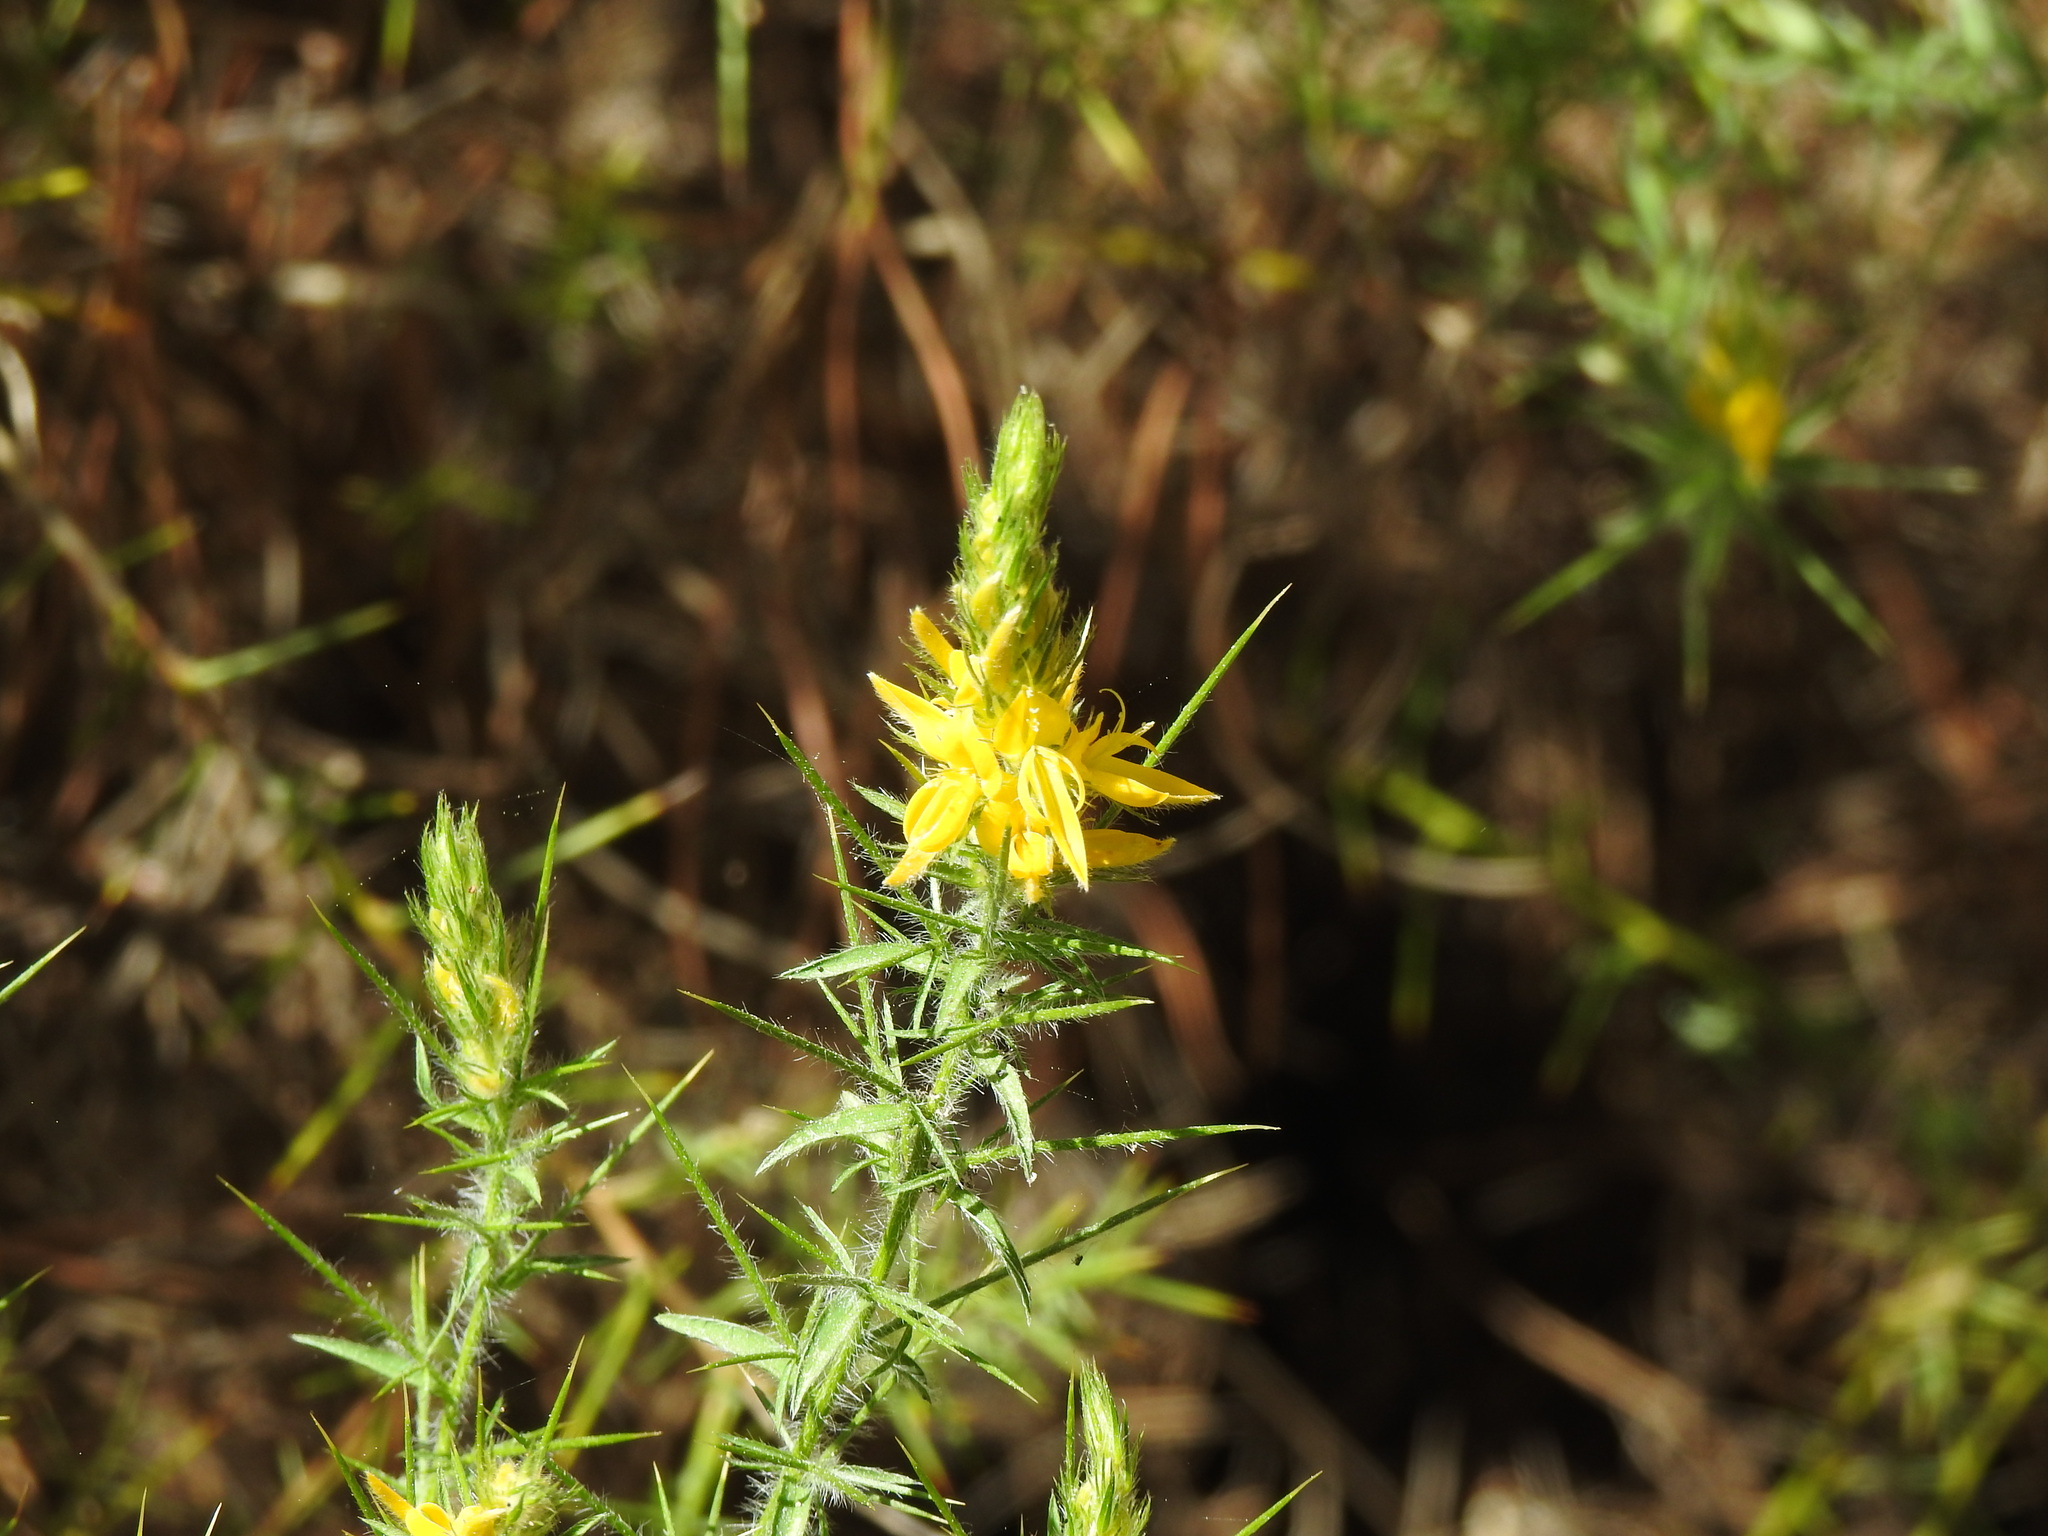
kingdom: Plantae
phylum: Tracheophyta
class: Magnoliopsida
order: Fabales
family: Fabaceae
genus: Genista
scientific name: Genista hirsuta
